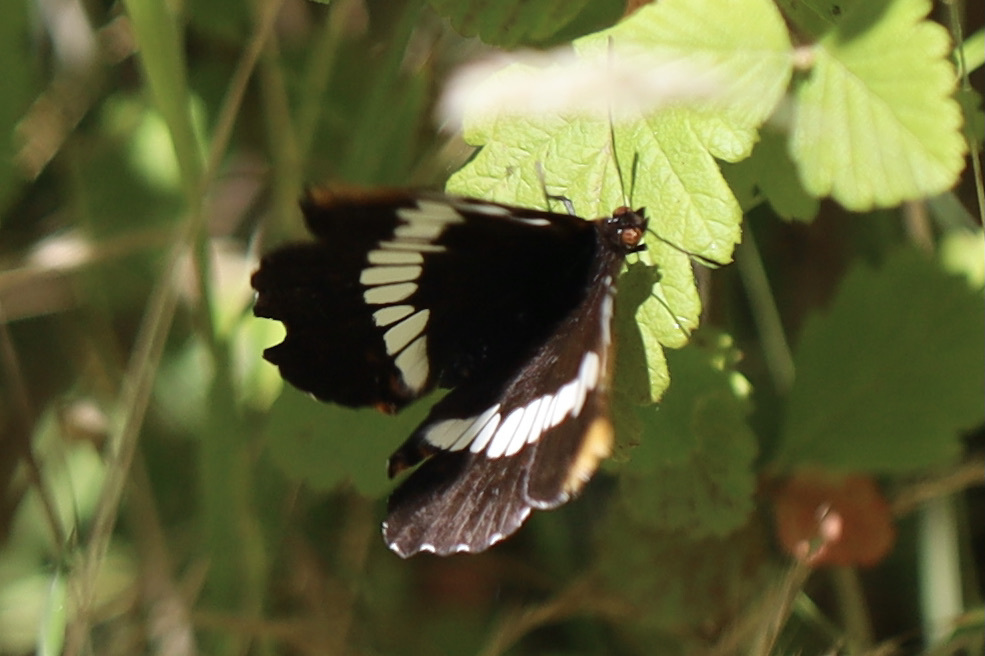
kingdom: Animalia
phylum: Arthropoda
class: Insecta
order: Lepidoptera
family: Nymphalidae
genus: Limenitis
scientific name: Limenitis lorquini
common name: Lorquin's admiral
